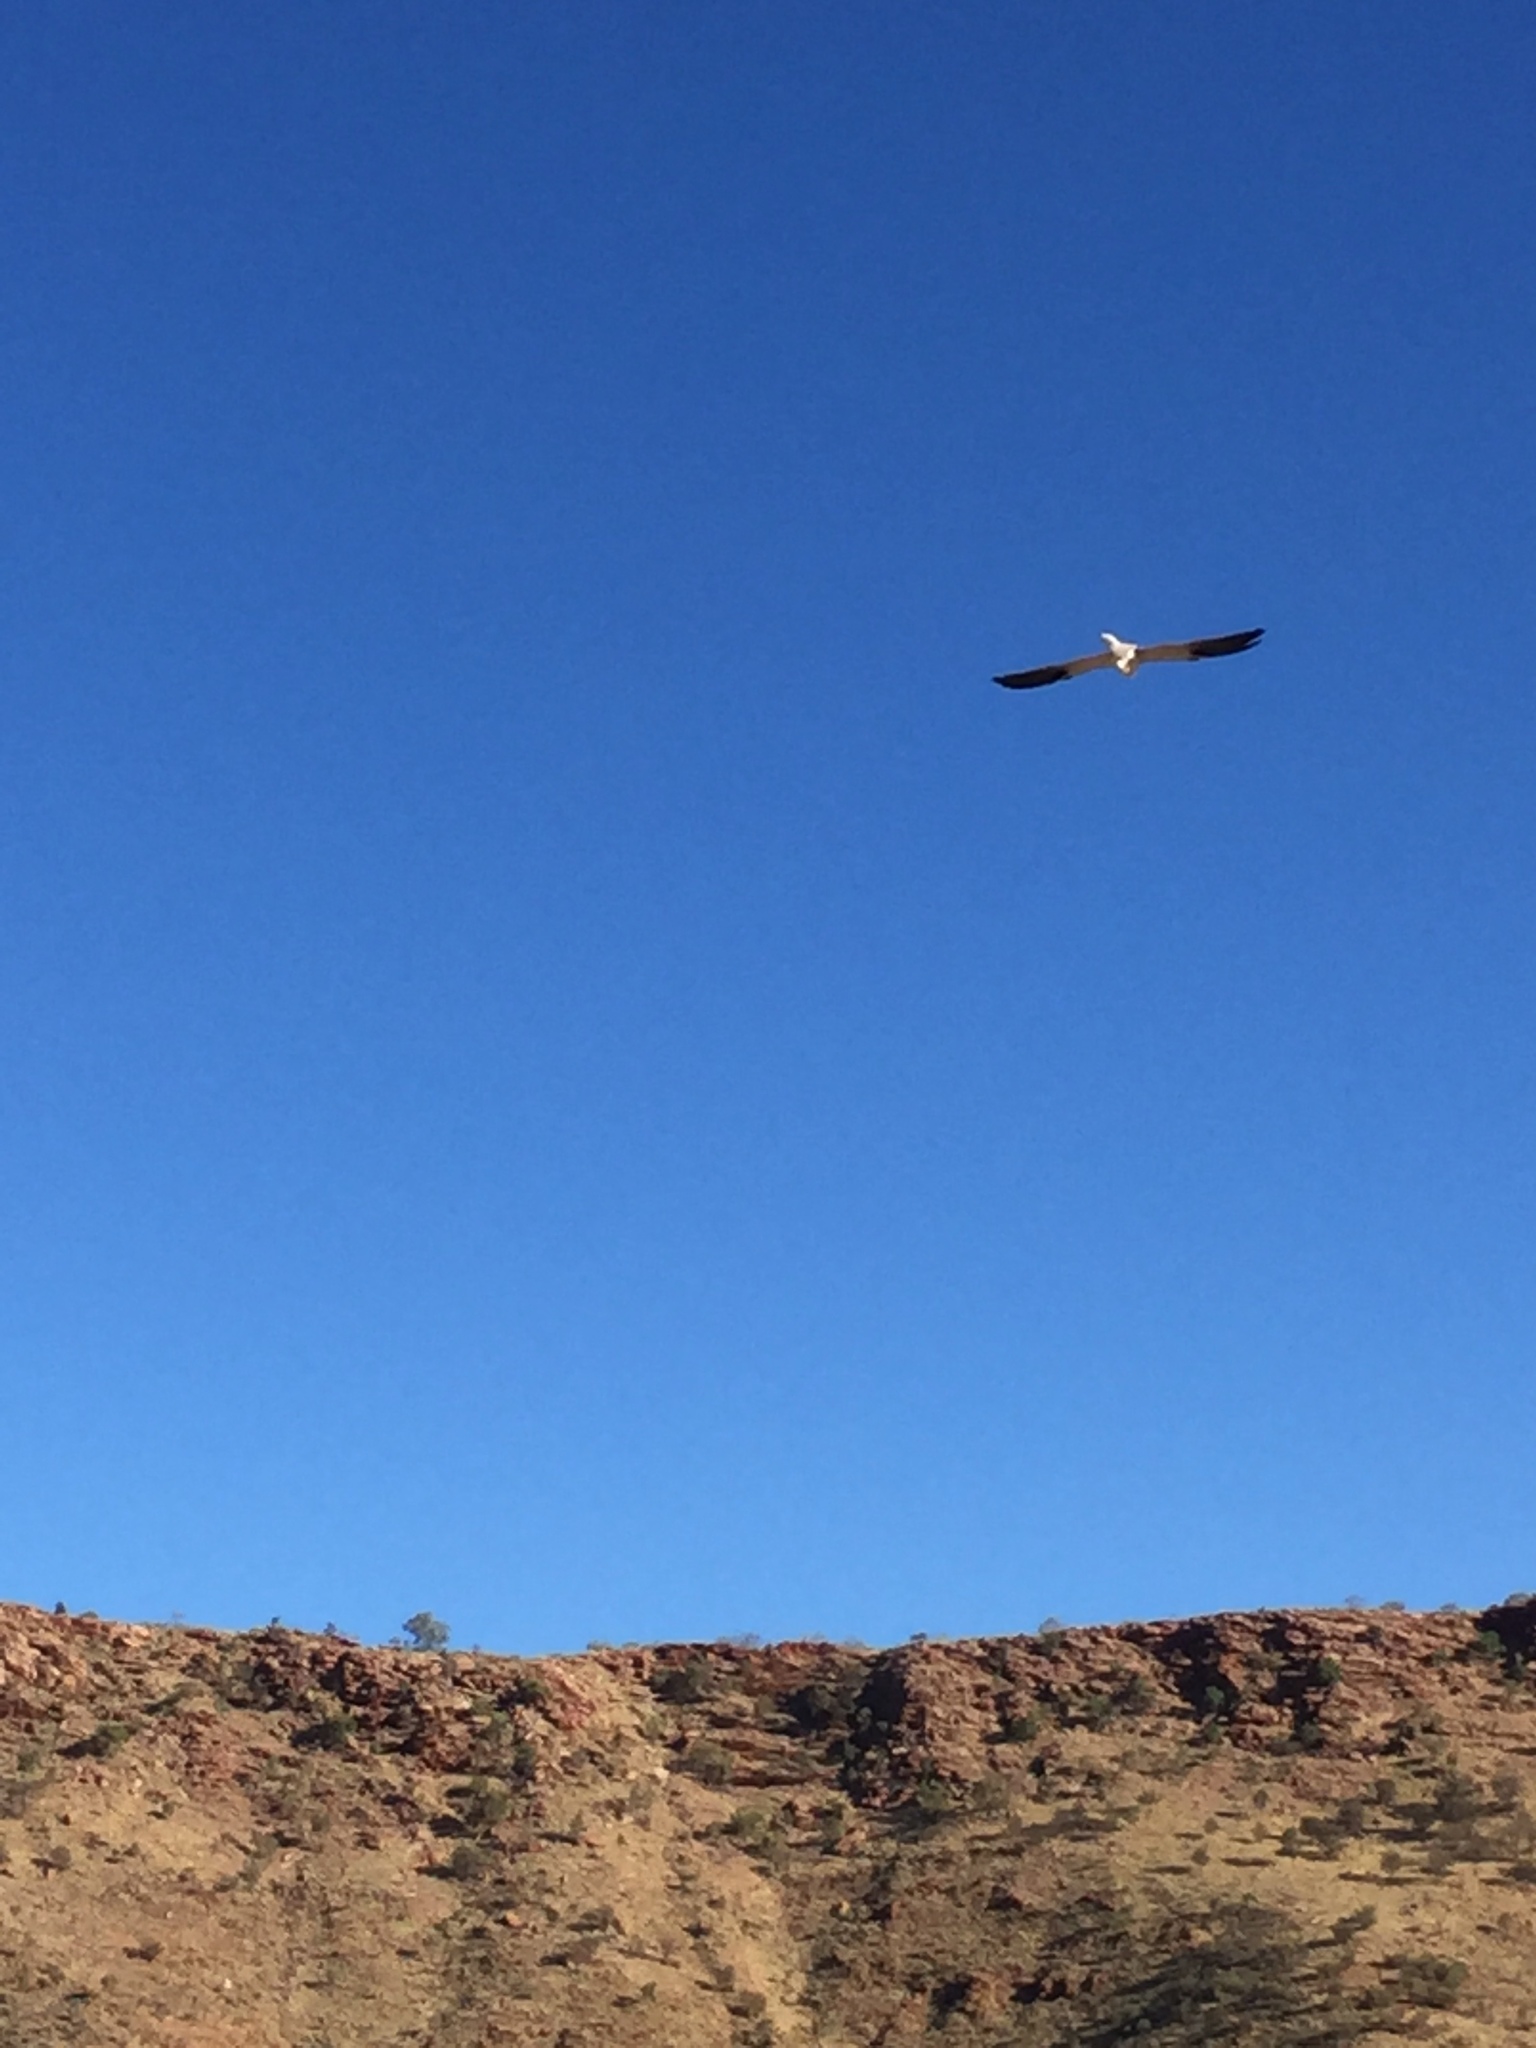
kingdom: Animalia
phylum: Chordata
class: Aves
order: Accipitriformes
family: Accipitridae
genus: Elanus
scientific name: Elanus axillaris
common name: Black-shouldered kite
